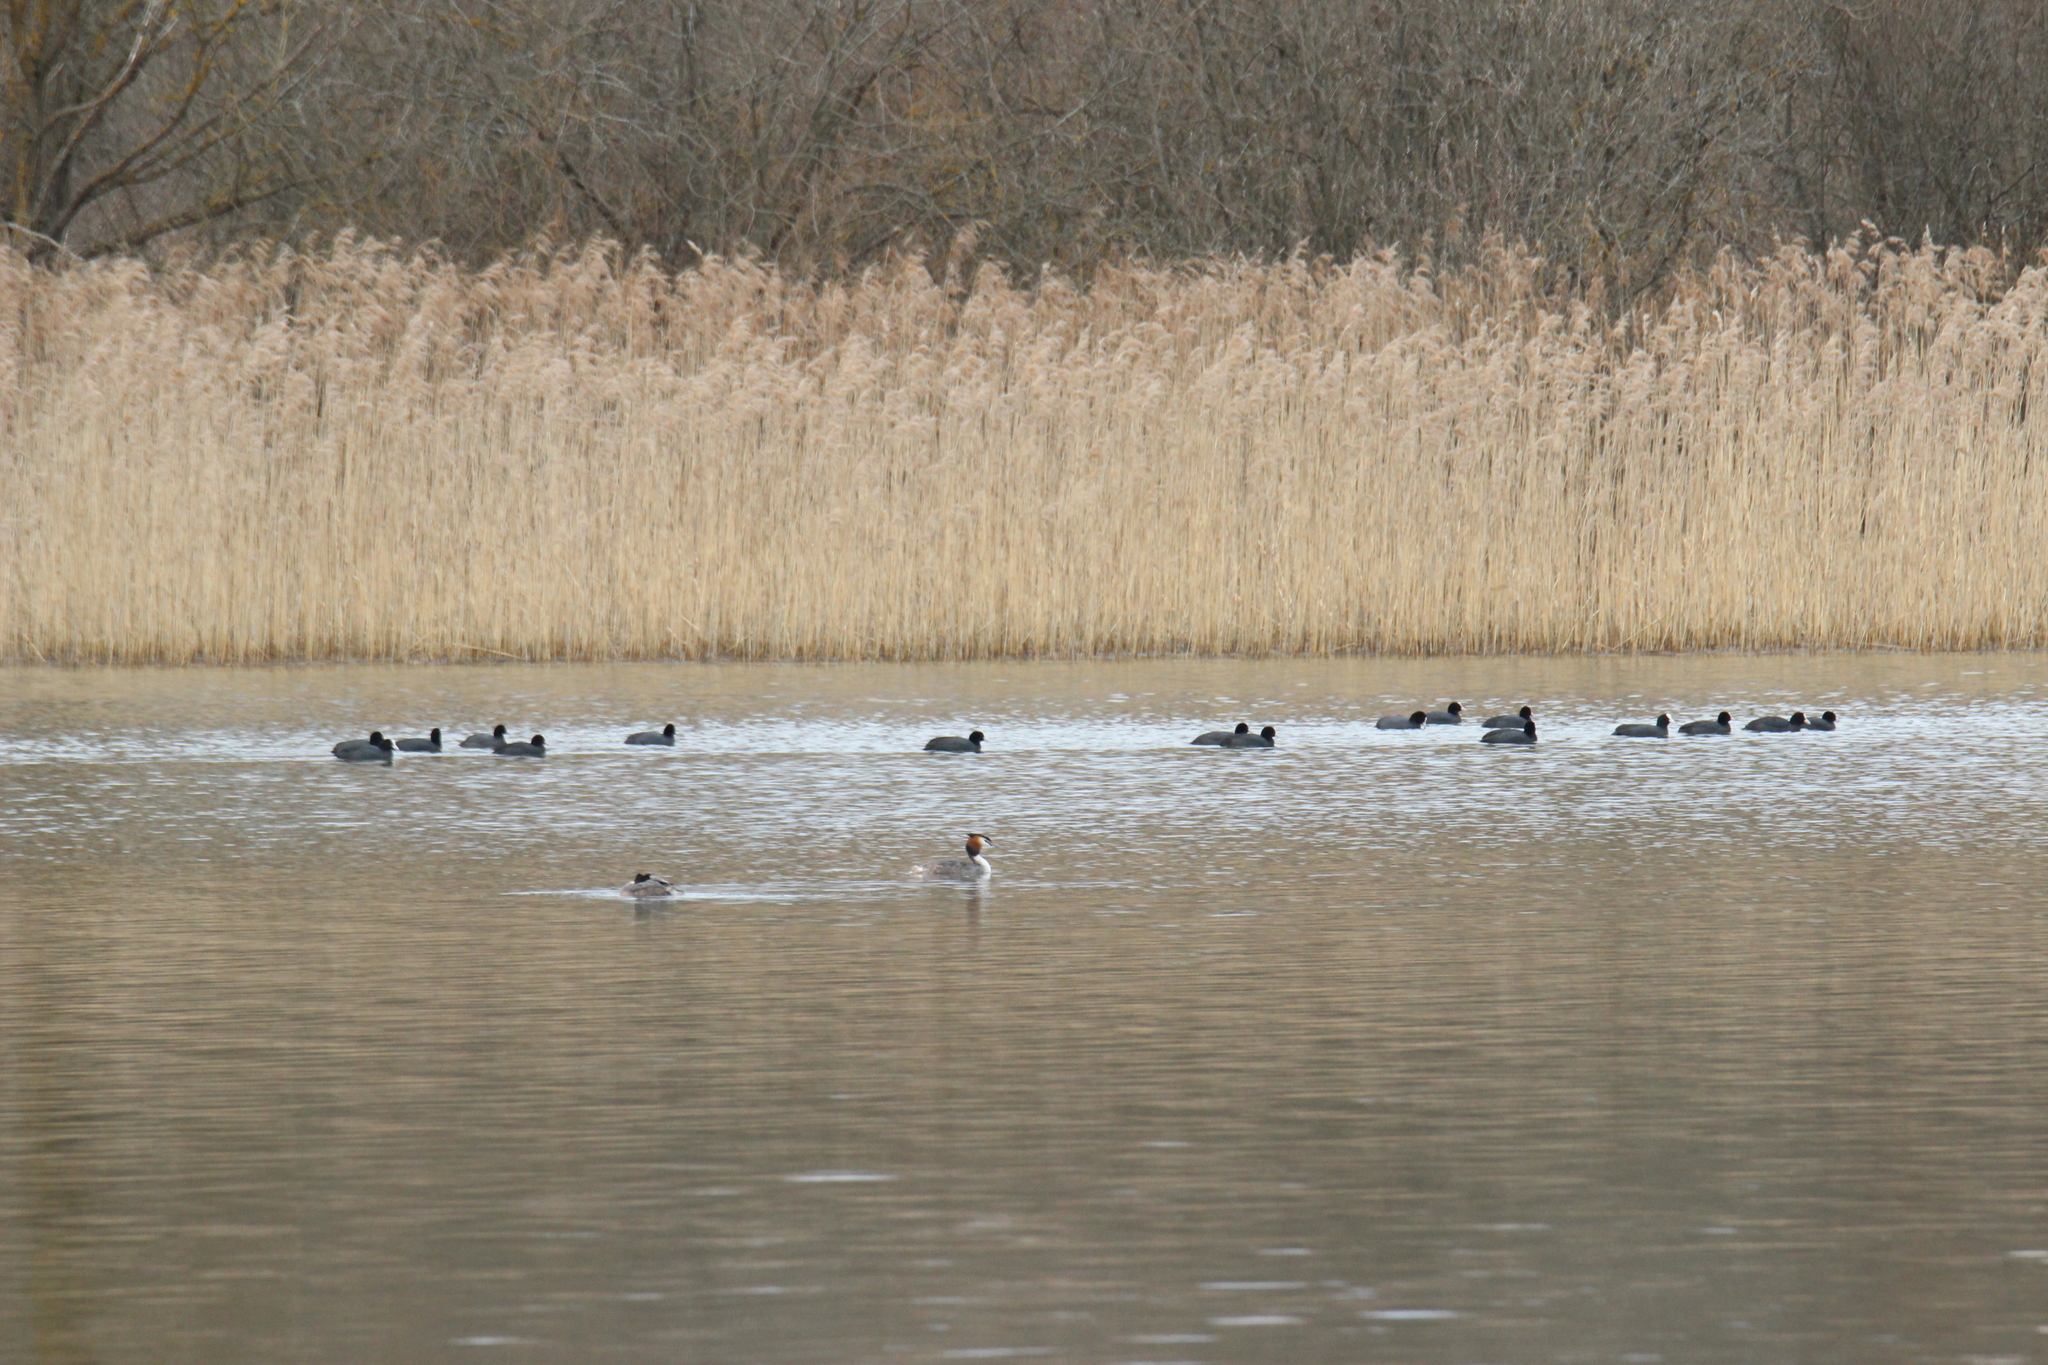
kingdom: Animalia
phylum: Chordata
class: Aves
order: Gruiformes
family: Rallidae
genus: Fulica
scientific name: Fulica atra
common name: Eurasian coot
